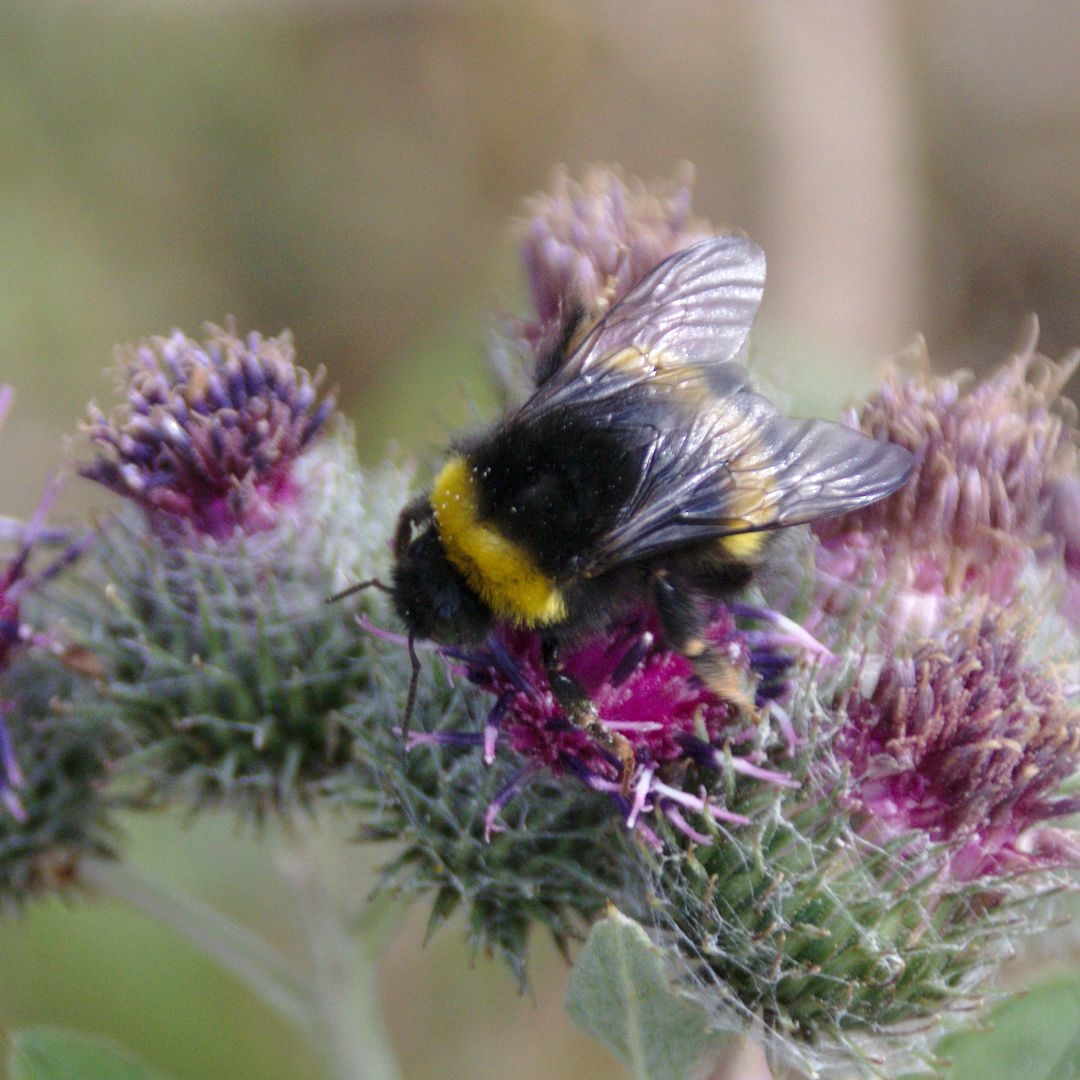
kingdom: Animalia
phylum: Arthropoda
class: Insecta
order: Hymenoptera
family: Apidae
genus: Bombus
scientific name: Bombus
